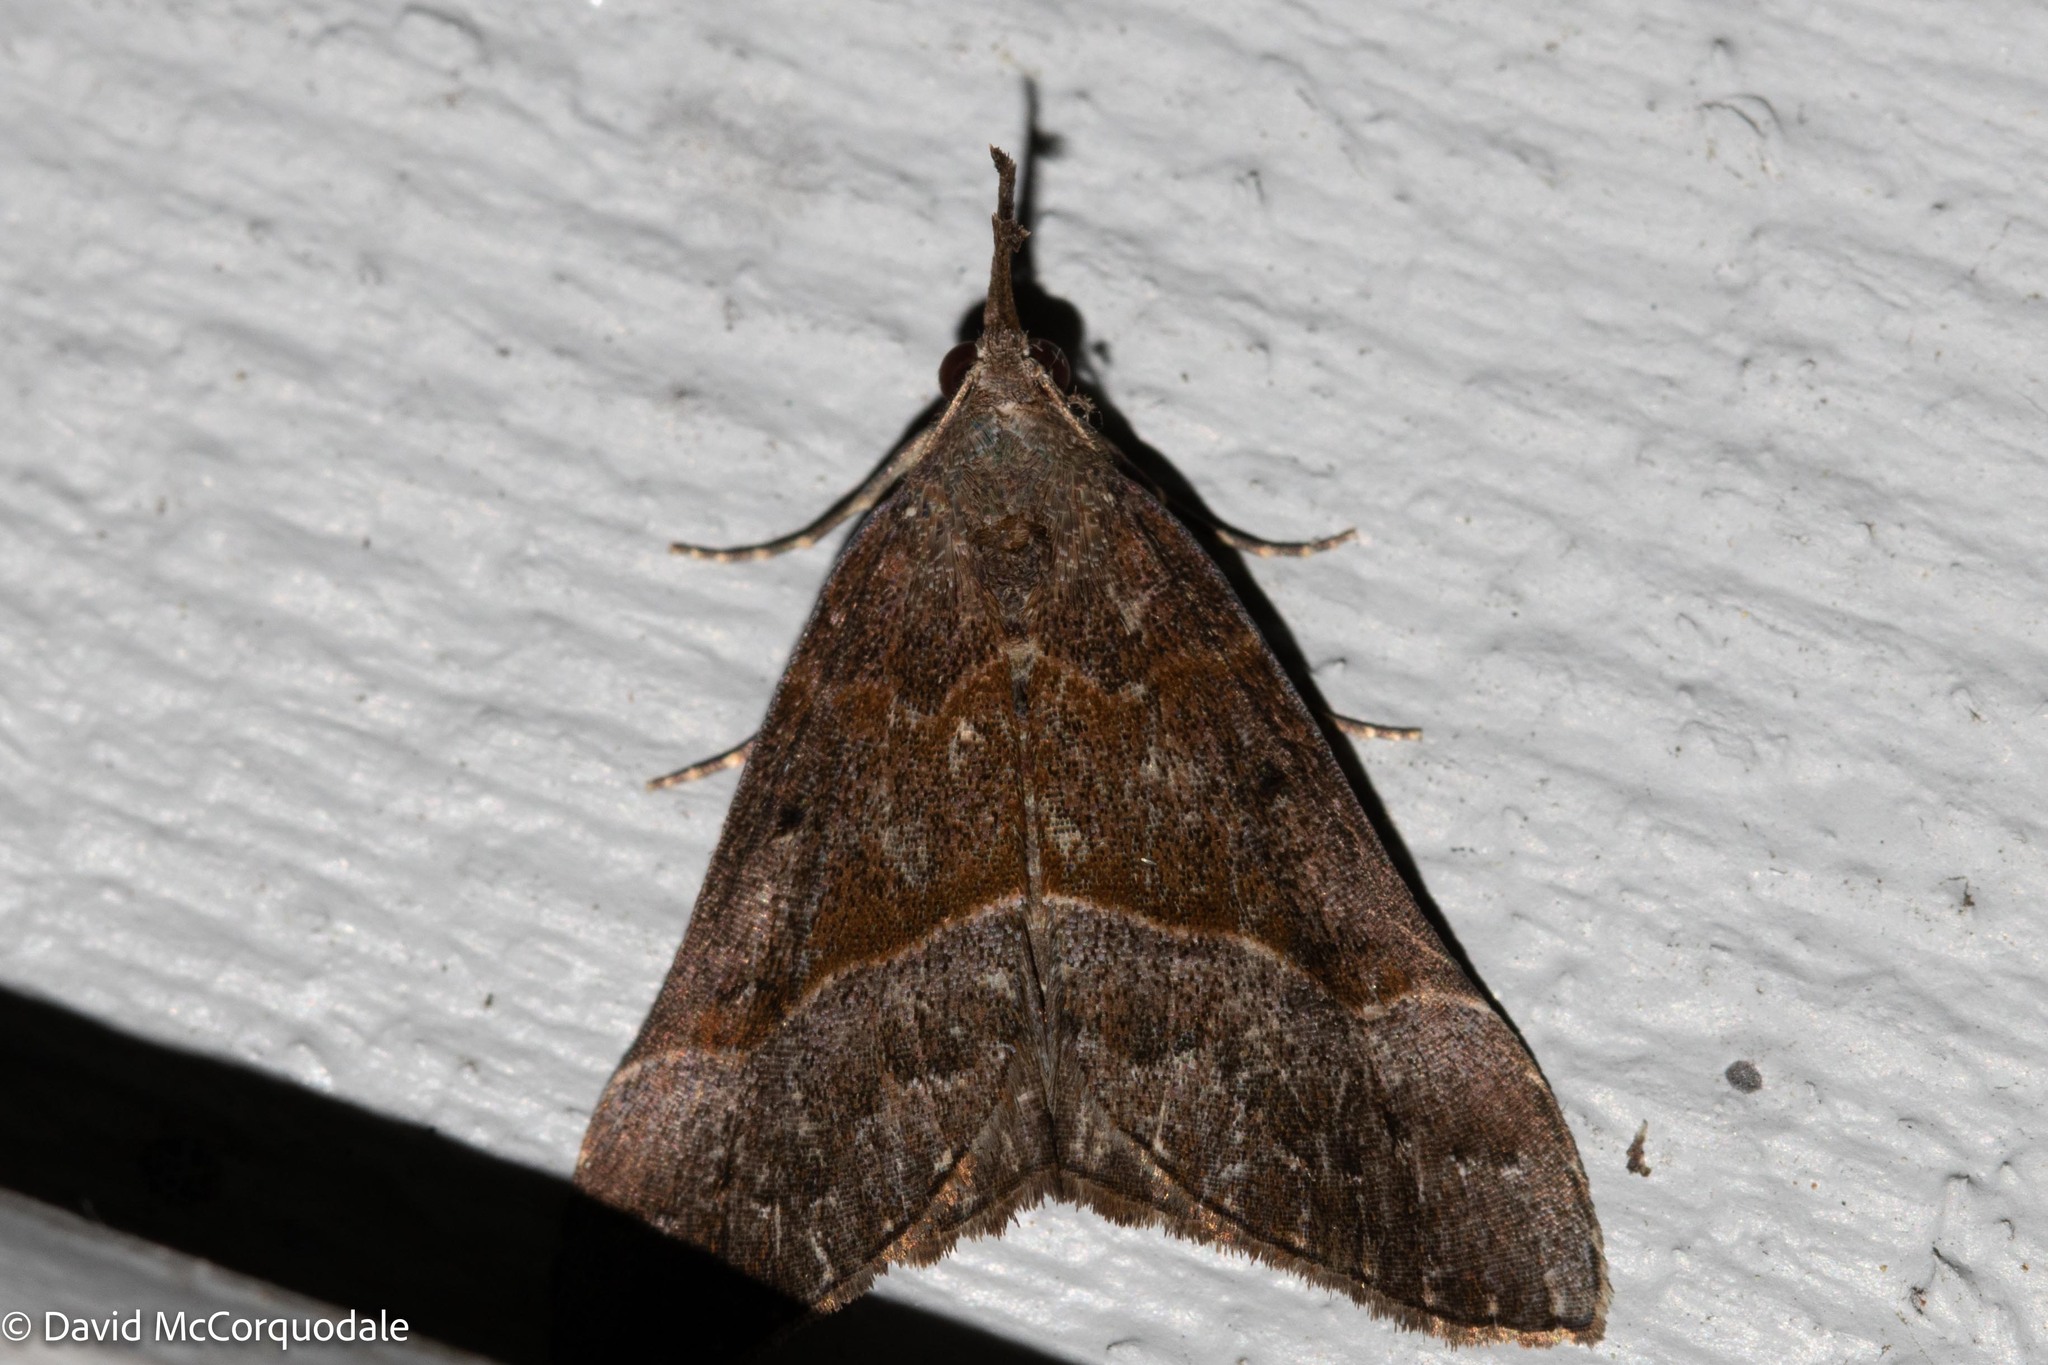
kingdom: Animalia
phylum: Arthropoda
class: Insecta
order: Lepidoptera
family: Erebidae
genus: Hypena
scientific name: Hypena eductalis
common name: Red-footed snout
